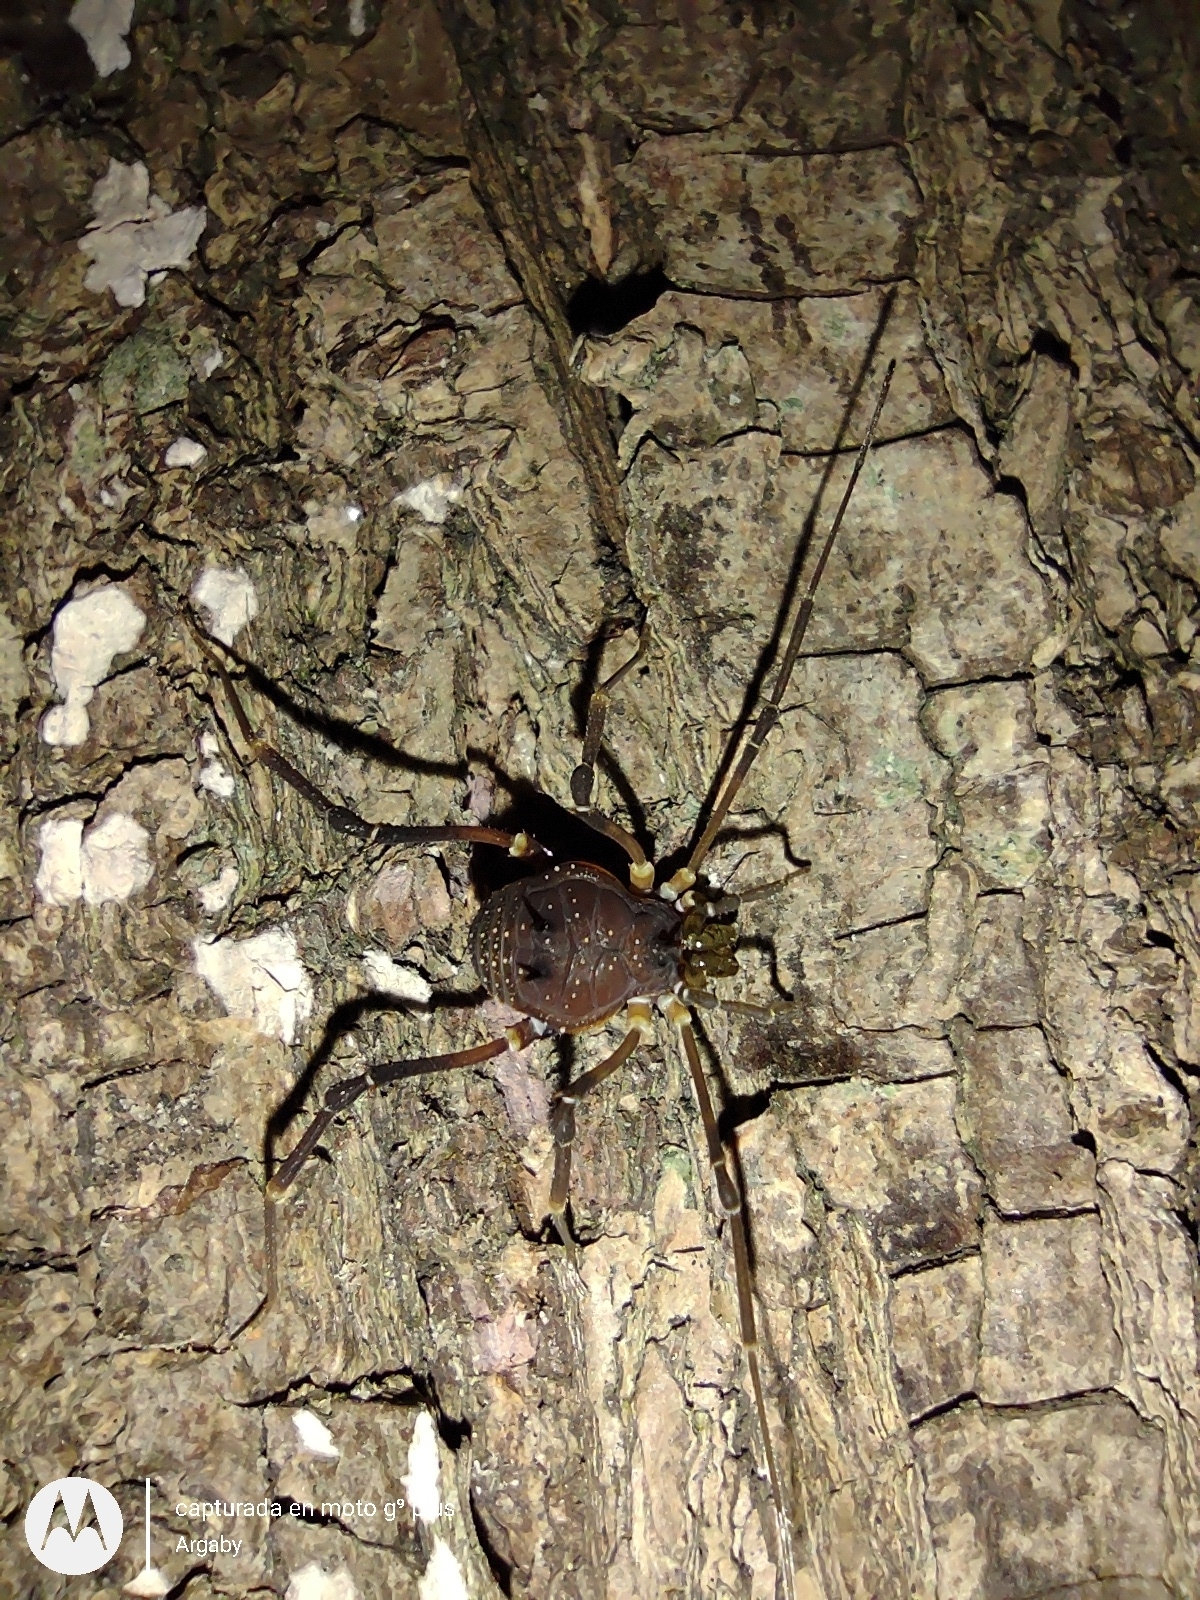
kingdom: Animalia
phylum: Arthropoda
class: Arachnida
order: Opiliones
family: Gonyleptidae
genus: Discocyrtus
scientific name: Discocyrtus testudineus
